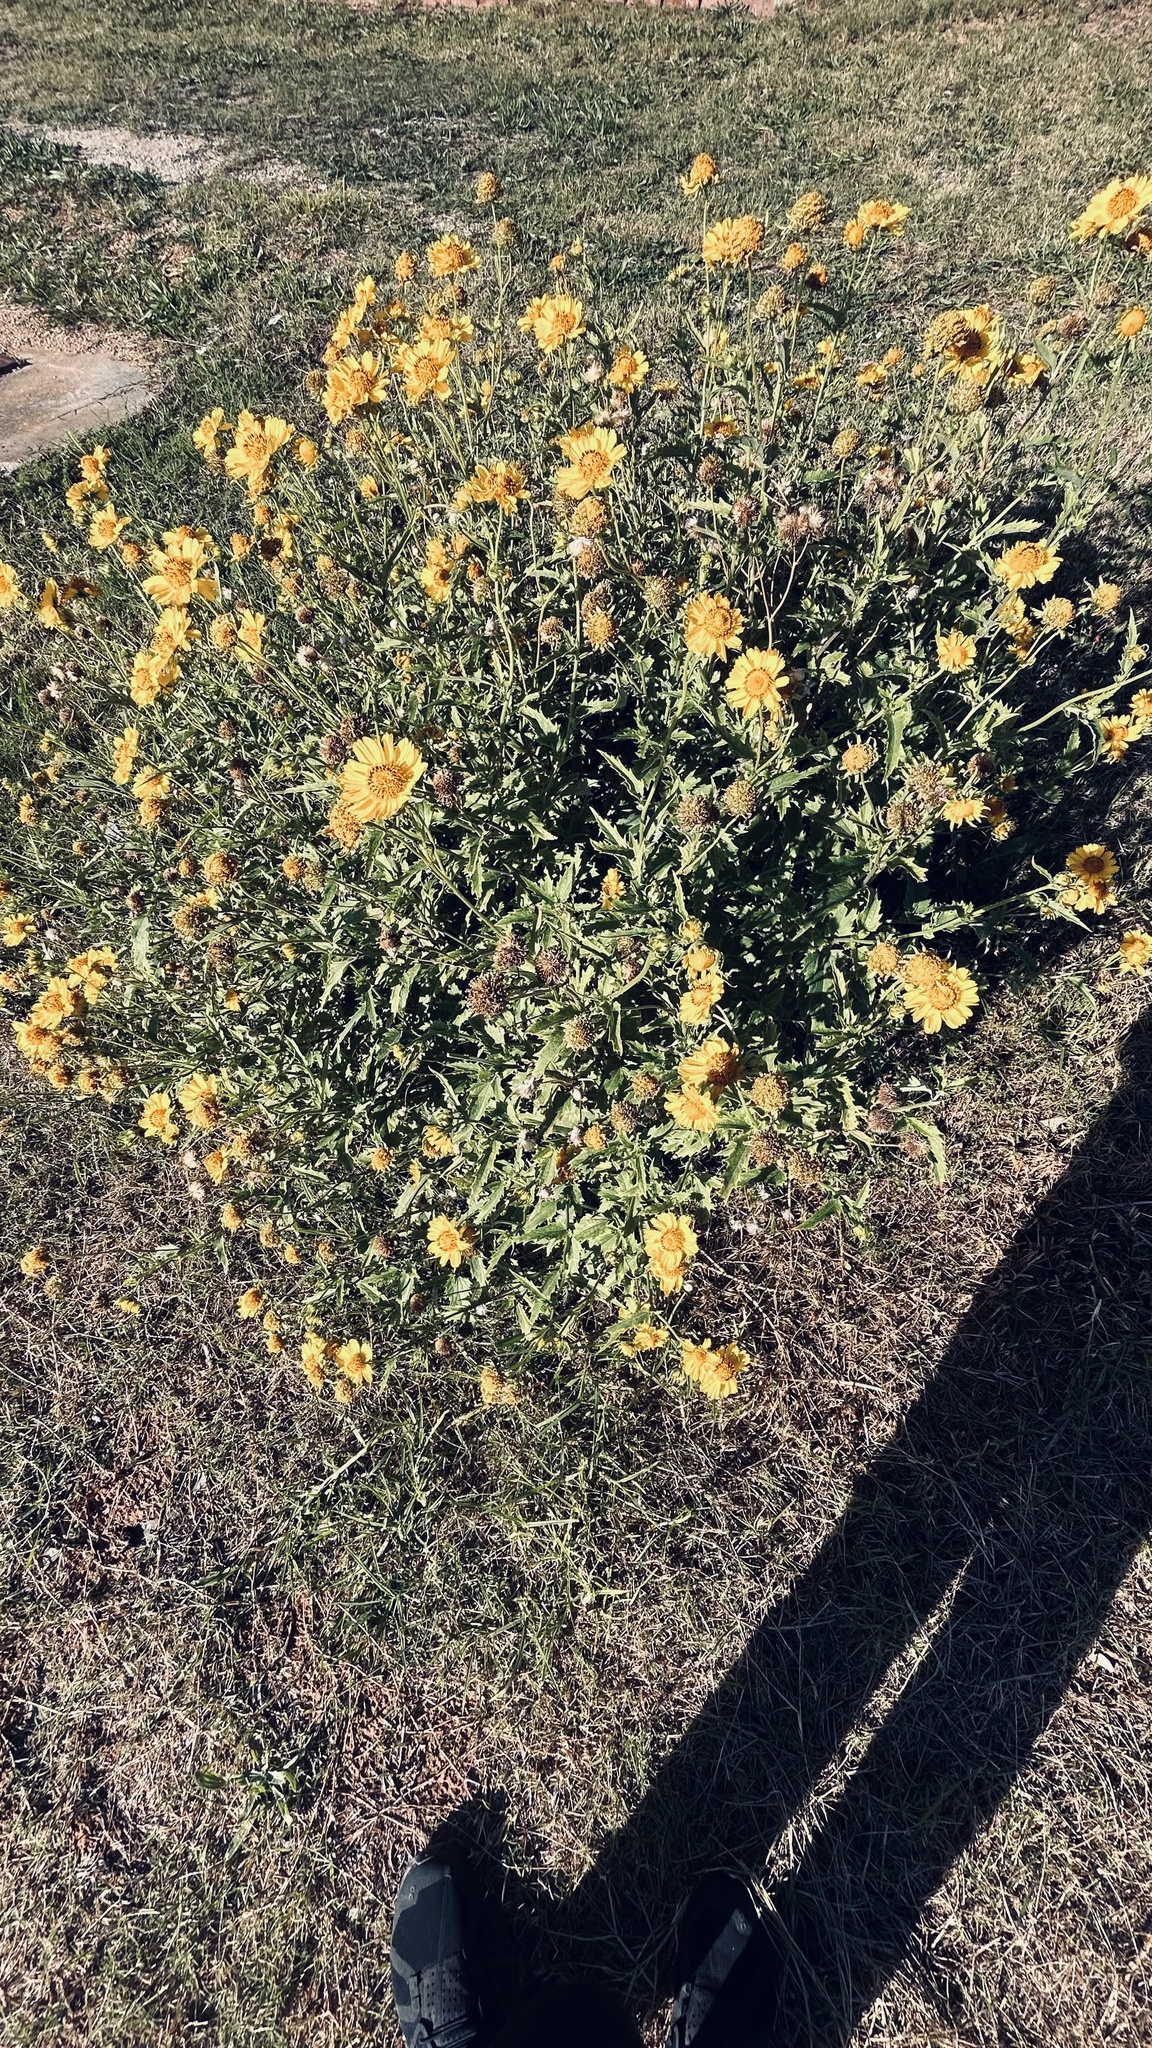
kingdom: Plantae
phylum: Tracheophyta
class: Magnoliopsida
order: Asterales
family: Asteraceae
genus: Verbesina
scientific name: Verbesina encelioides
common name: Golden crownbeard
